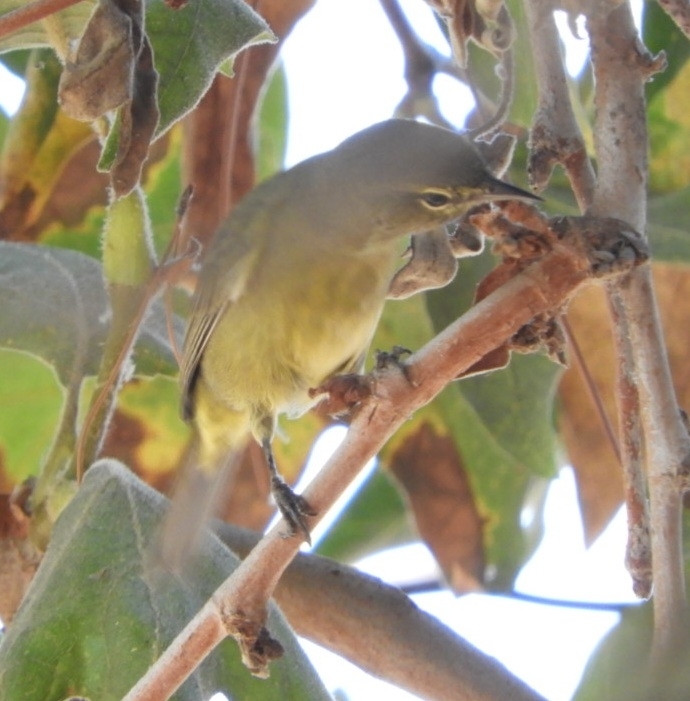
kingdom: Animalia
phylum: Chordata
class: Aves
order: Passeriformes
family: Parulidae
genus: Leiothlypis
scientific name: Leiothlypis celata
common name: Orange-crowned warbler
